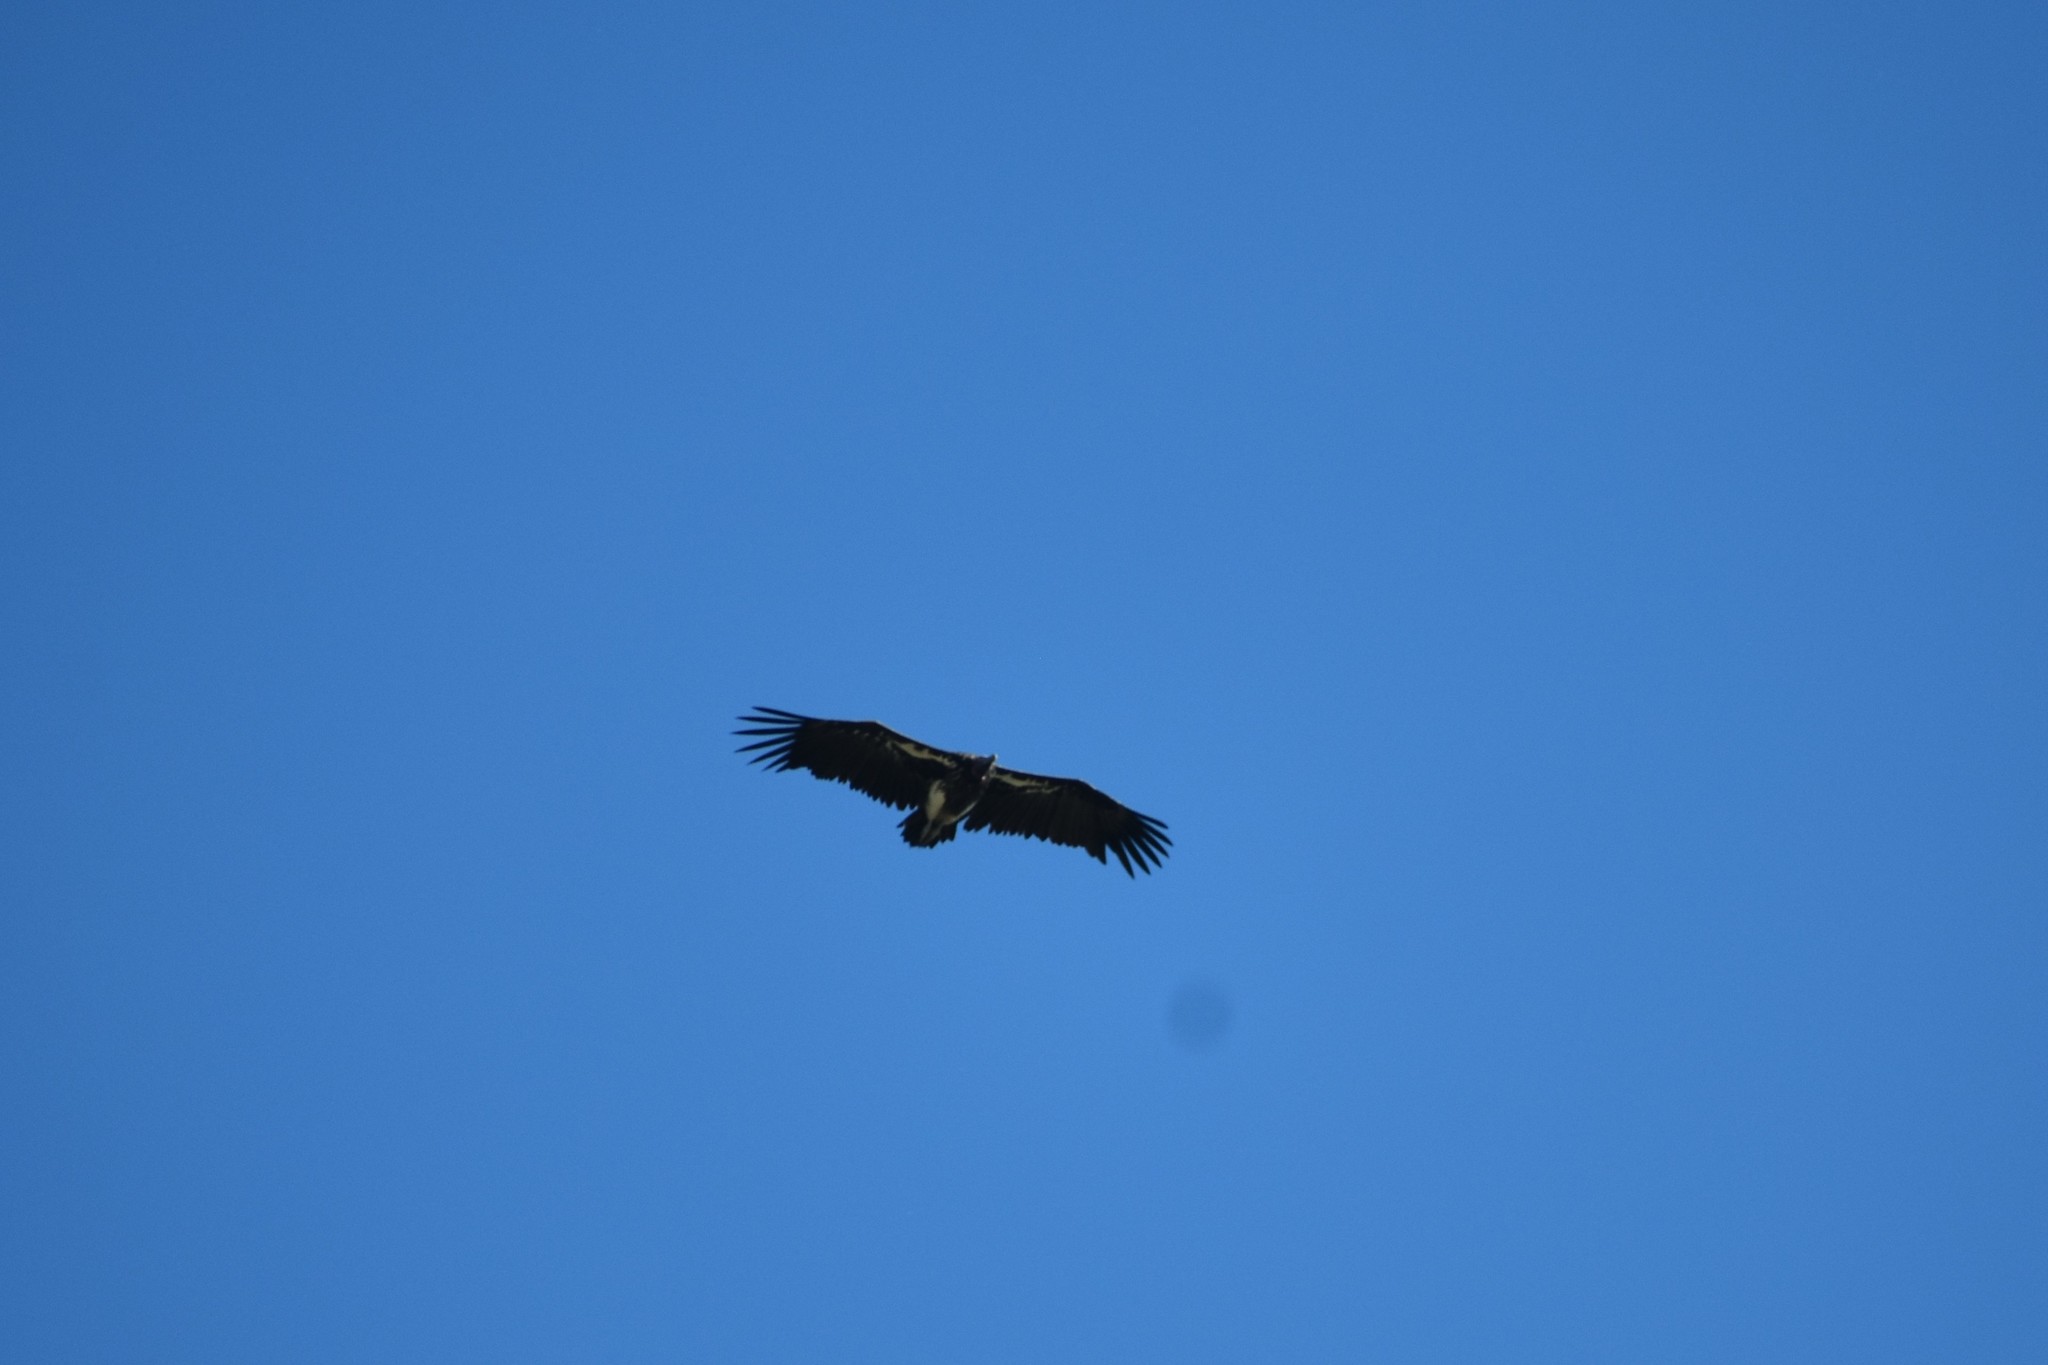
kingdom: Animalia
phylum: Chordata
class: Aves
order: Accipitriformes
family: Accipitridae
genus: Torgos
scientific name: Torgos tracheliotos
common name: Lappet-faced vulture
